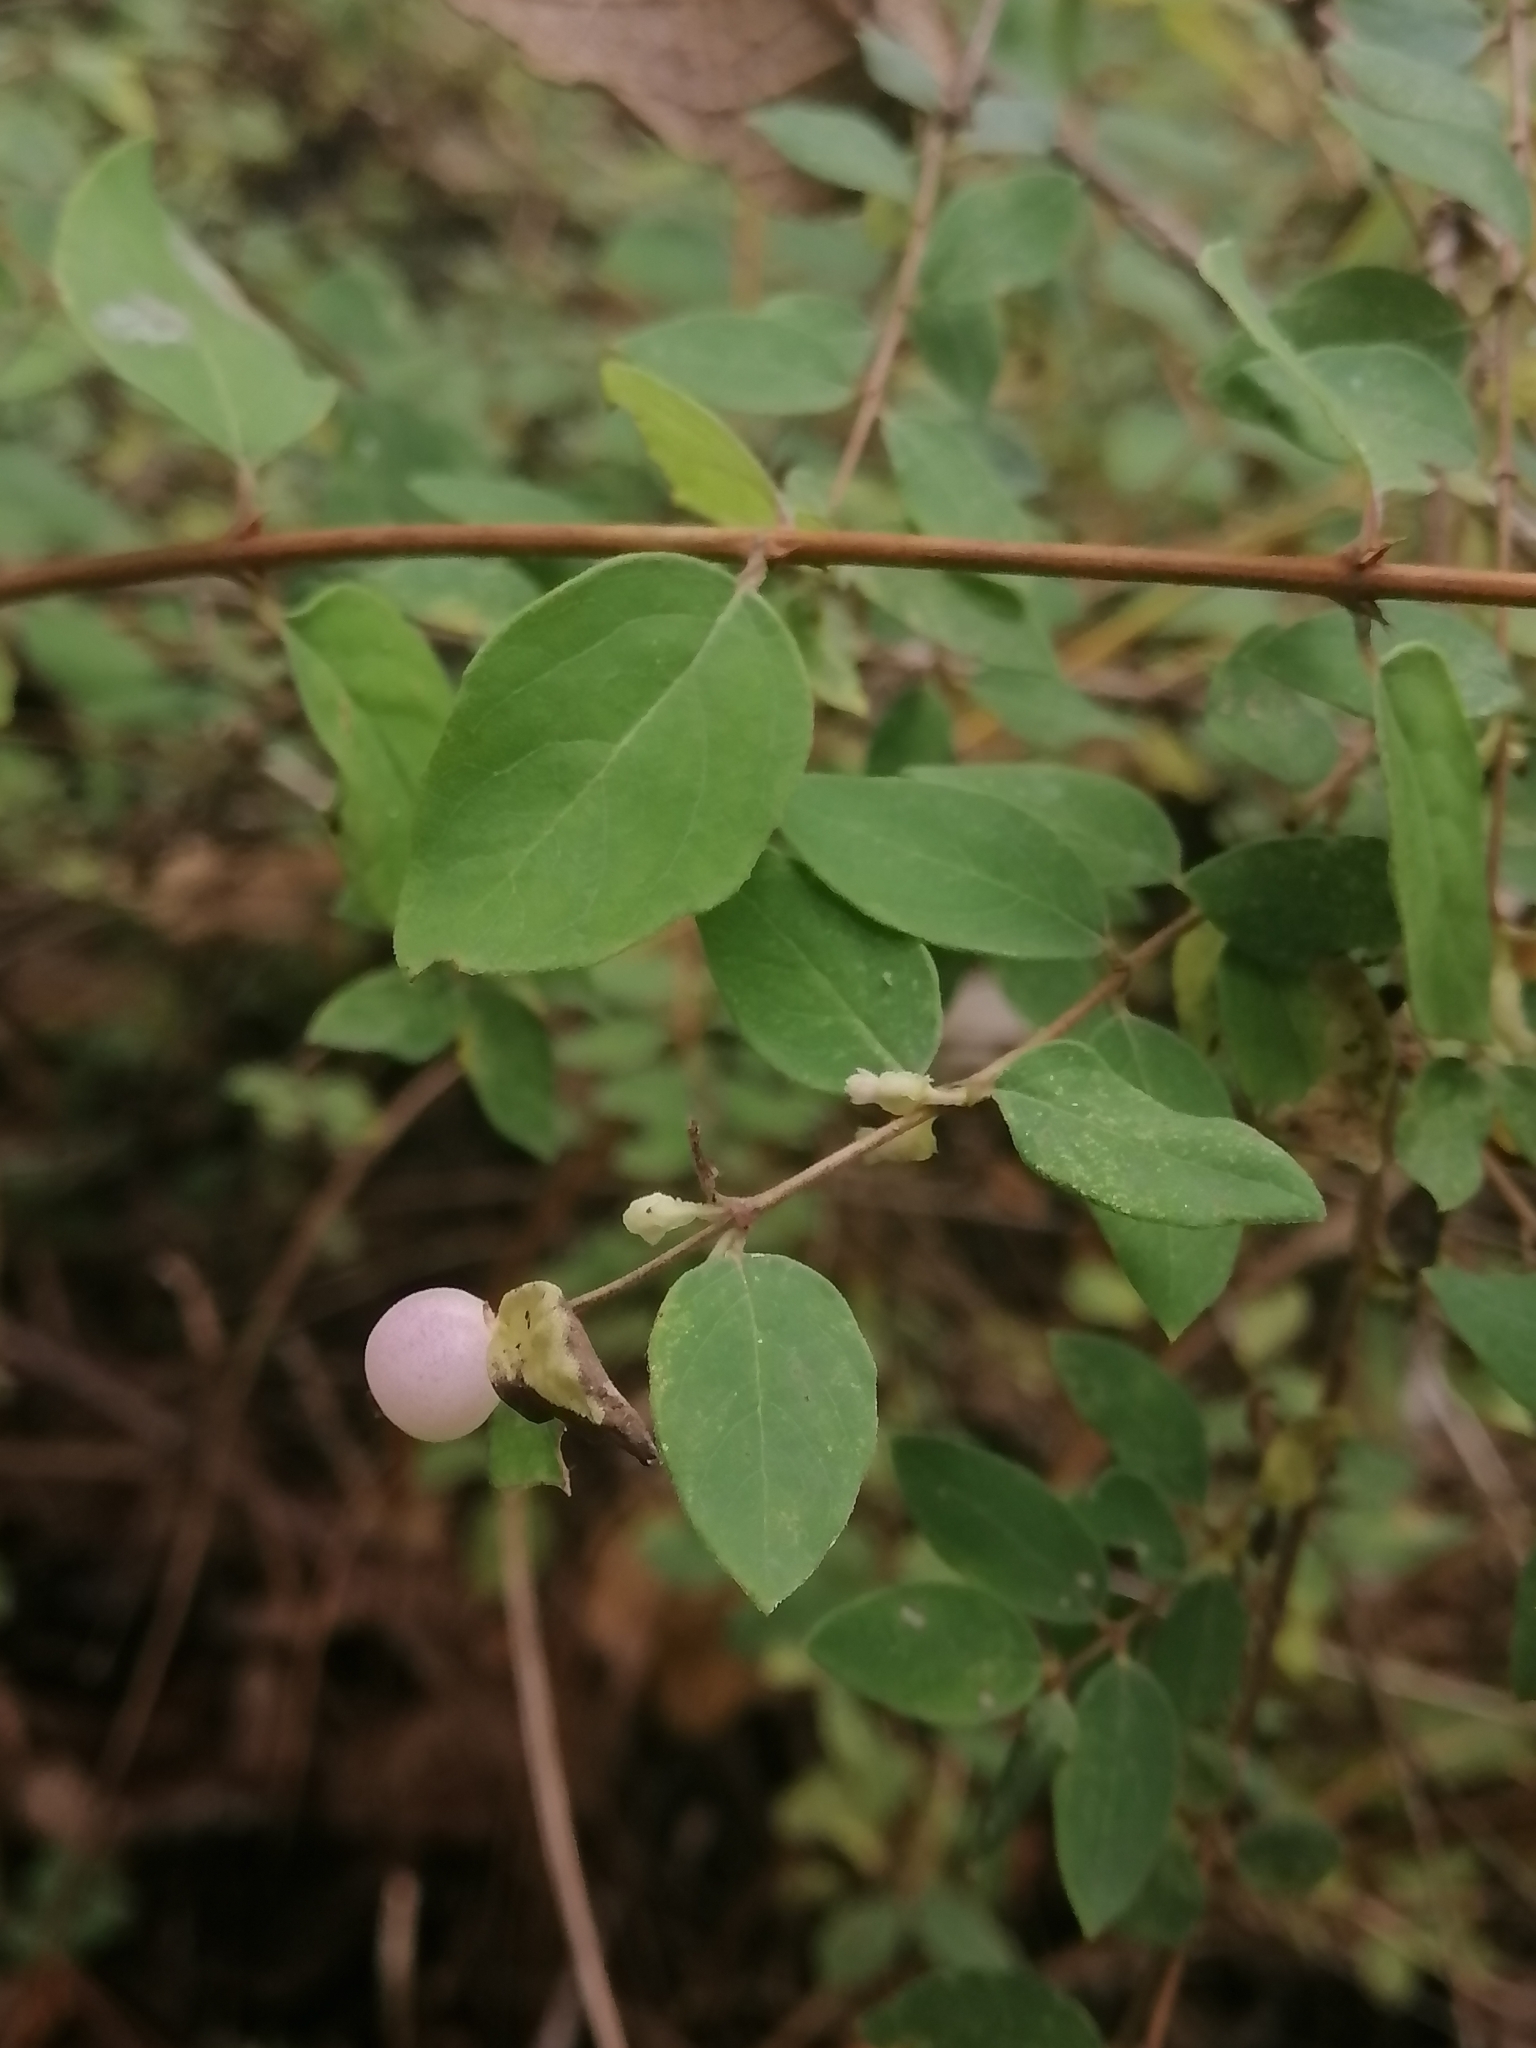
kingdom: Plantae
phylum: Tracheophyta
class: Magnoliopsida
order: Dipsacales
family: Caprifoliaceae
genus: Symphoricarpos
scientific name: Symphoricarpos microphyllus
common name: Small-leaved snowberry
